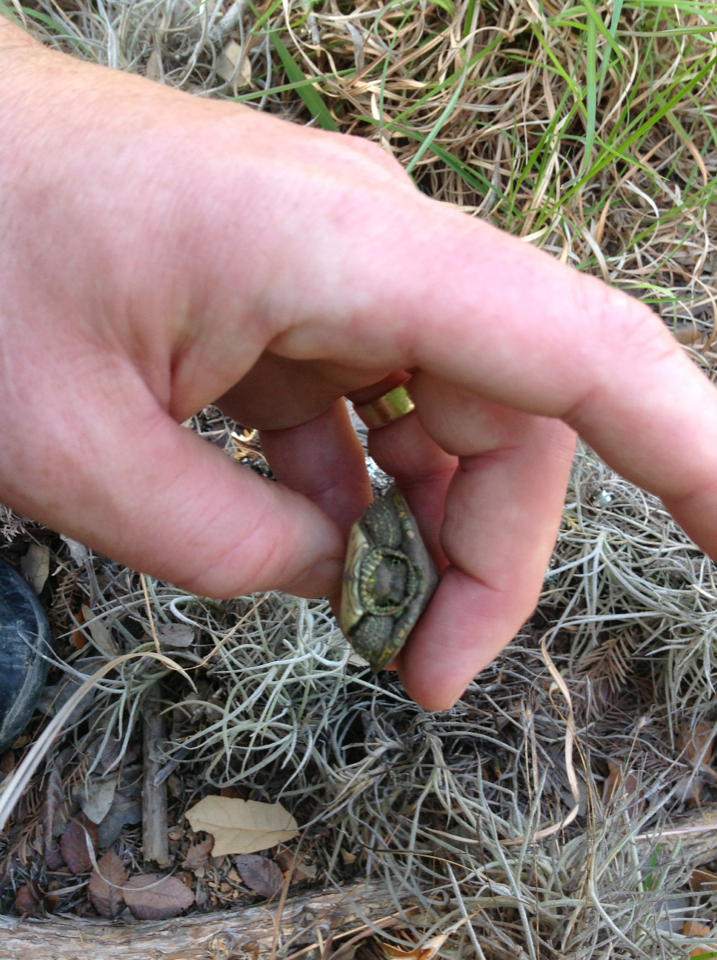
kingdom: Animalia
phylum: Chordata
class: Testudines
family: Emydidae
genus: Pseudemys
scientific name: Pseudemys texana
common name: Texas river cooter
